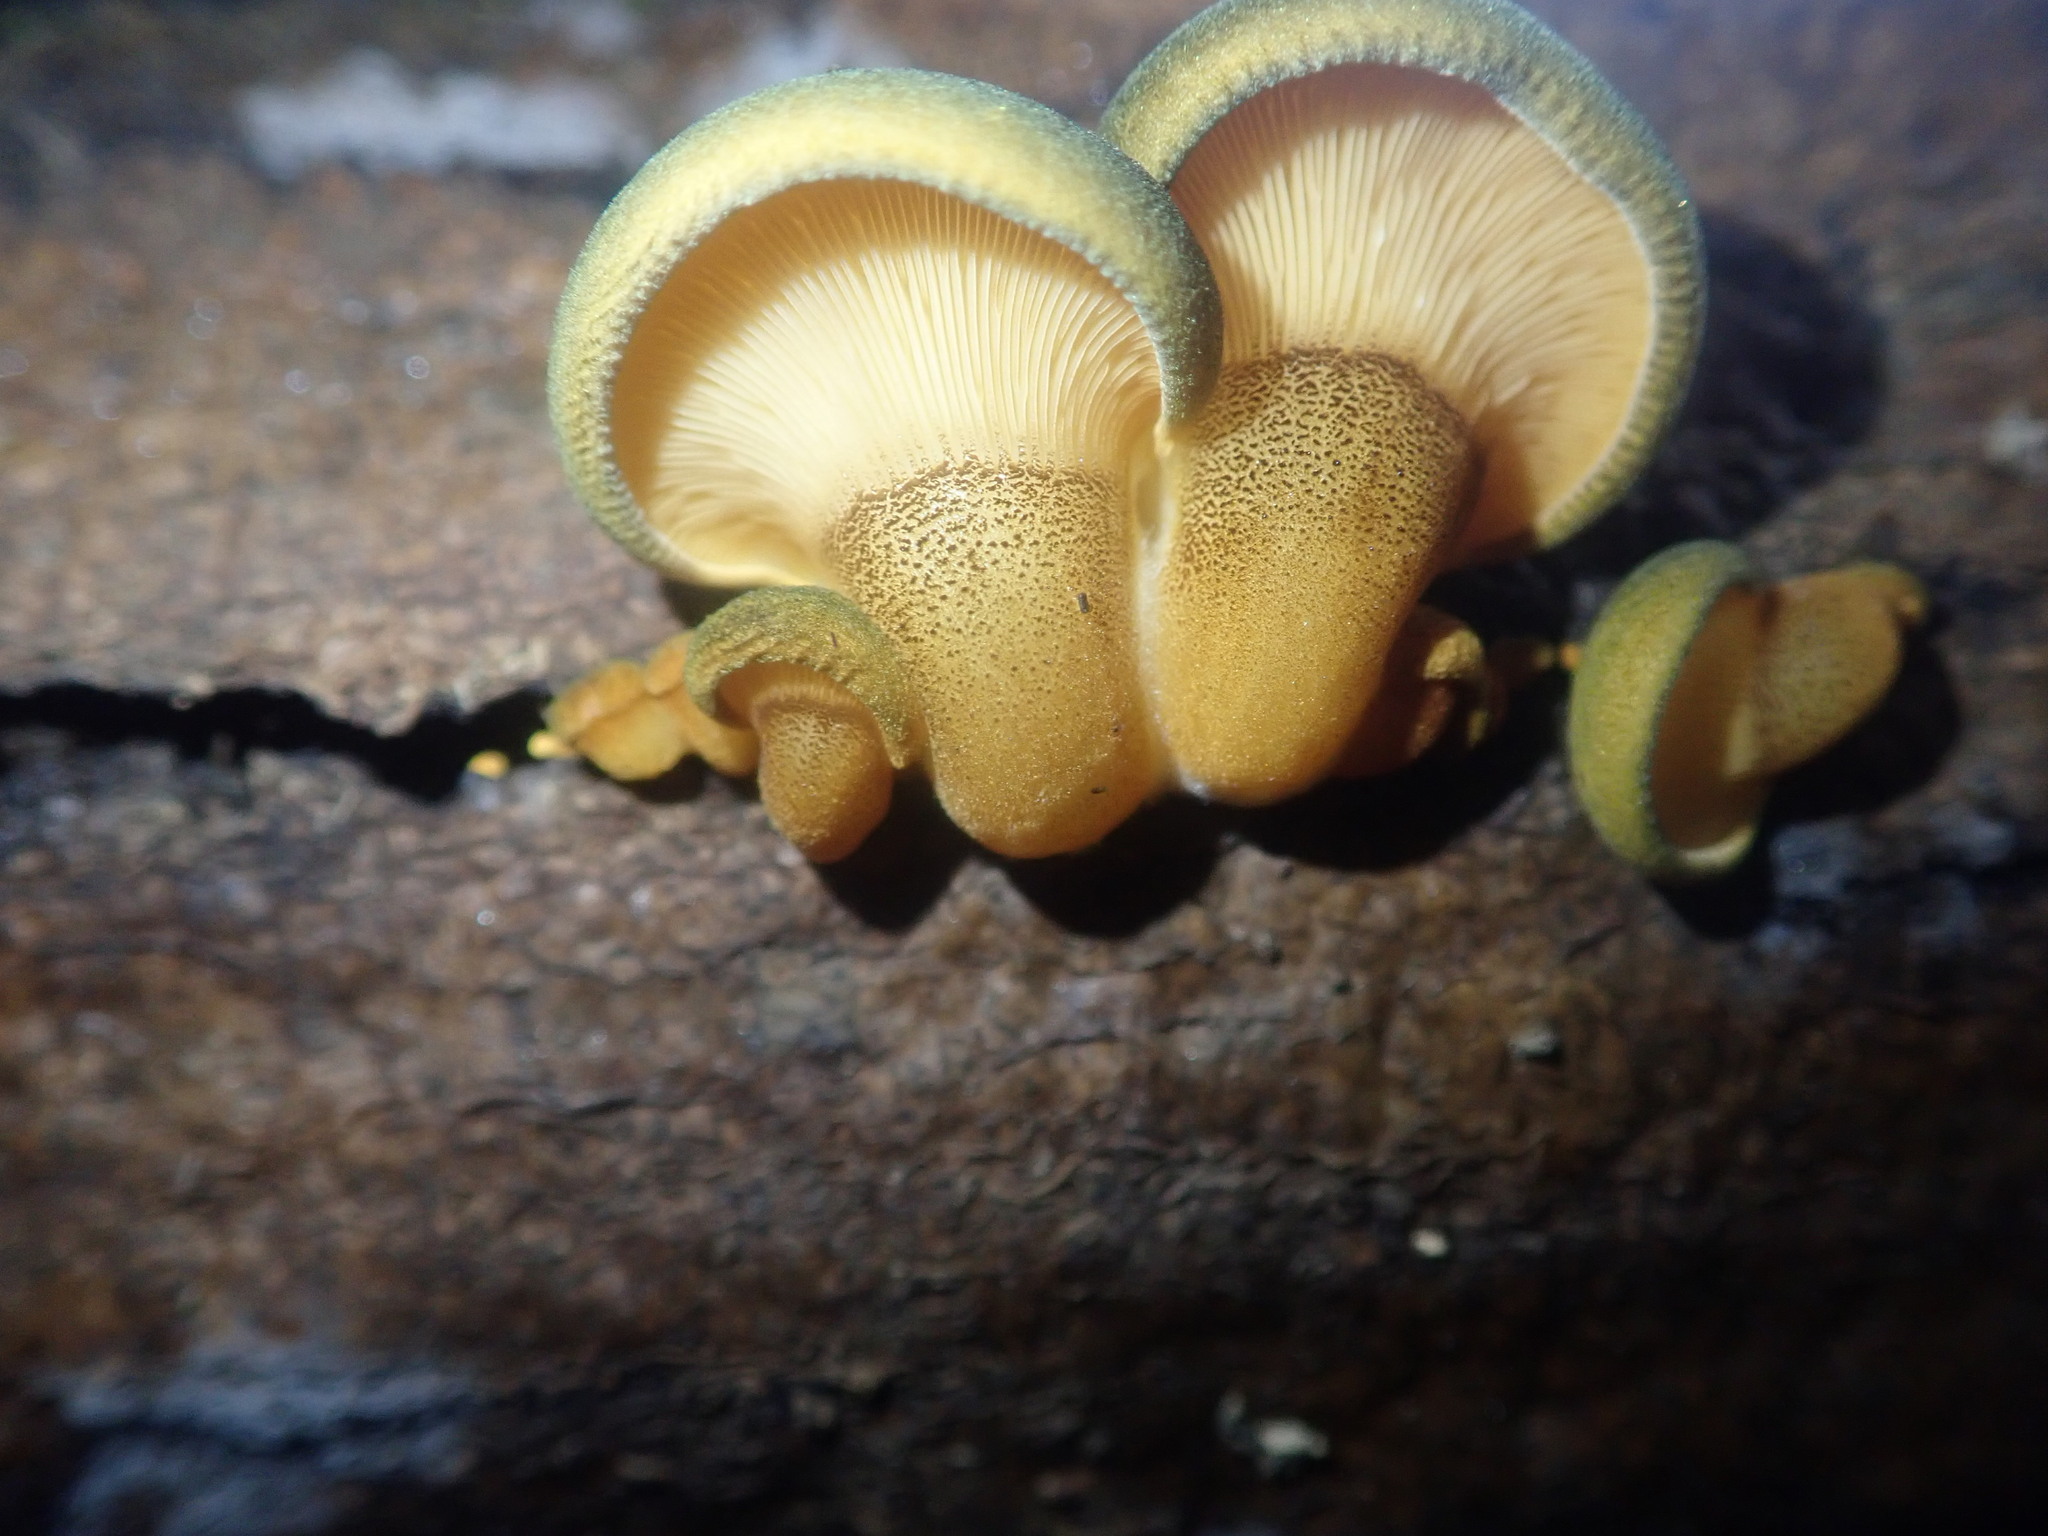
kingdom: Fungi
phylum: Basidiomycota
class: Agaricomycetes
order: Agaricales
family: Sarcomyxaceae
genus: Sarcomyxa
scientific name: Sarcomyxa serotina
